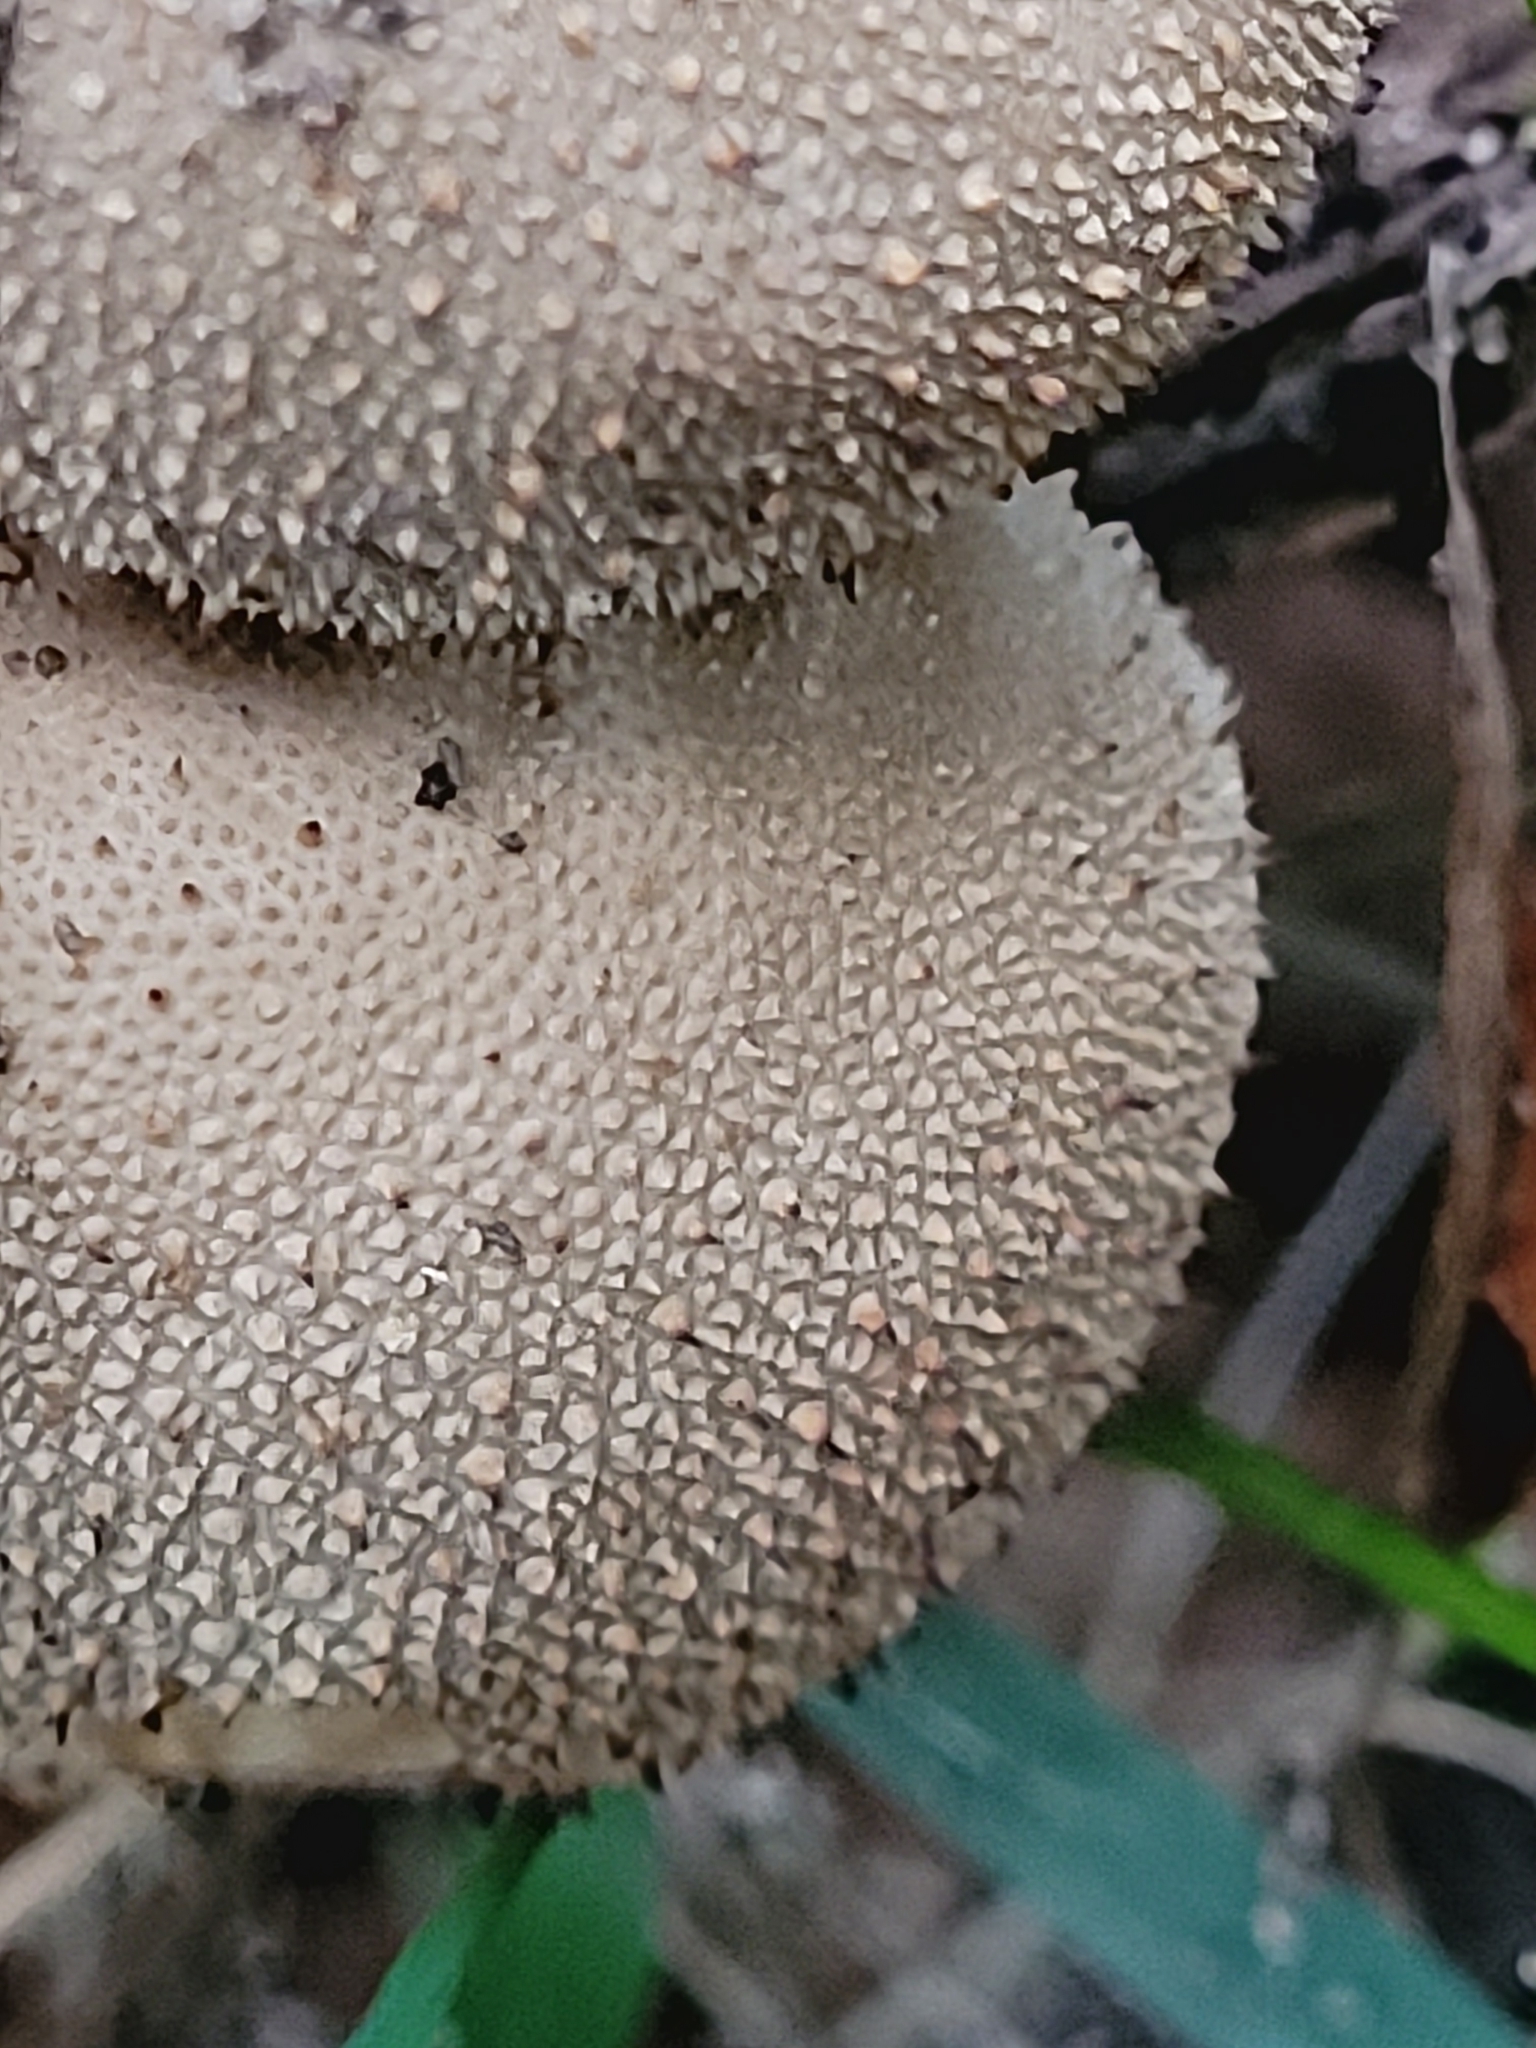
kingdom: Fungi
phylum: Basidiomycota
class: Agaricomycetes
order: Agaricales
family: Lycoperdaceae
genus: Lycoperdon
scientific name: Lycoperdon perlatum
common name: Common puffball
